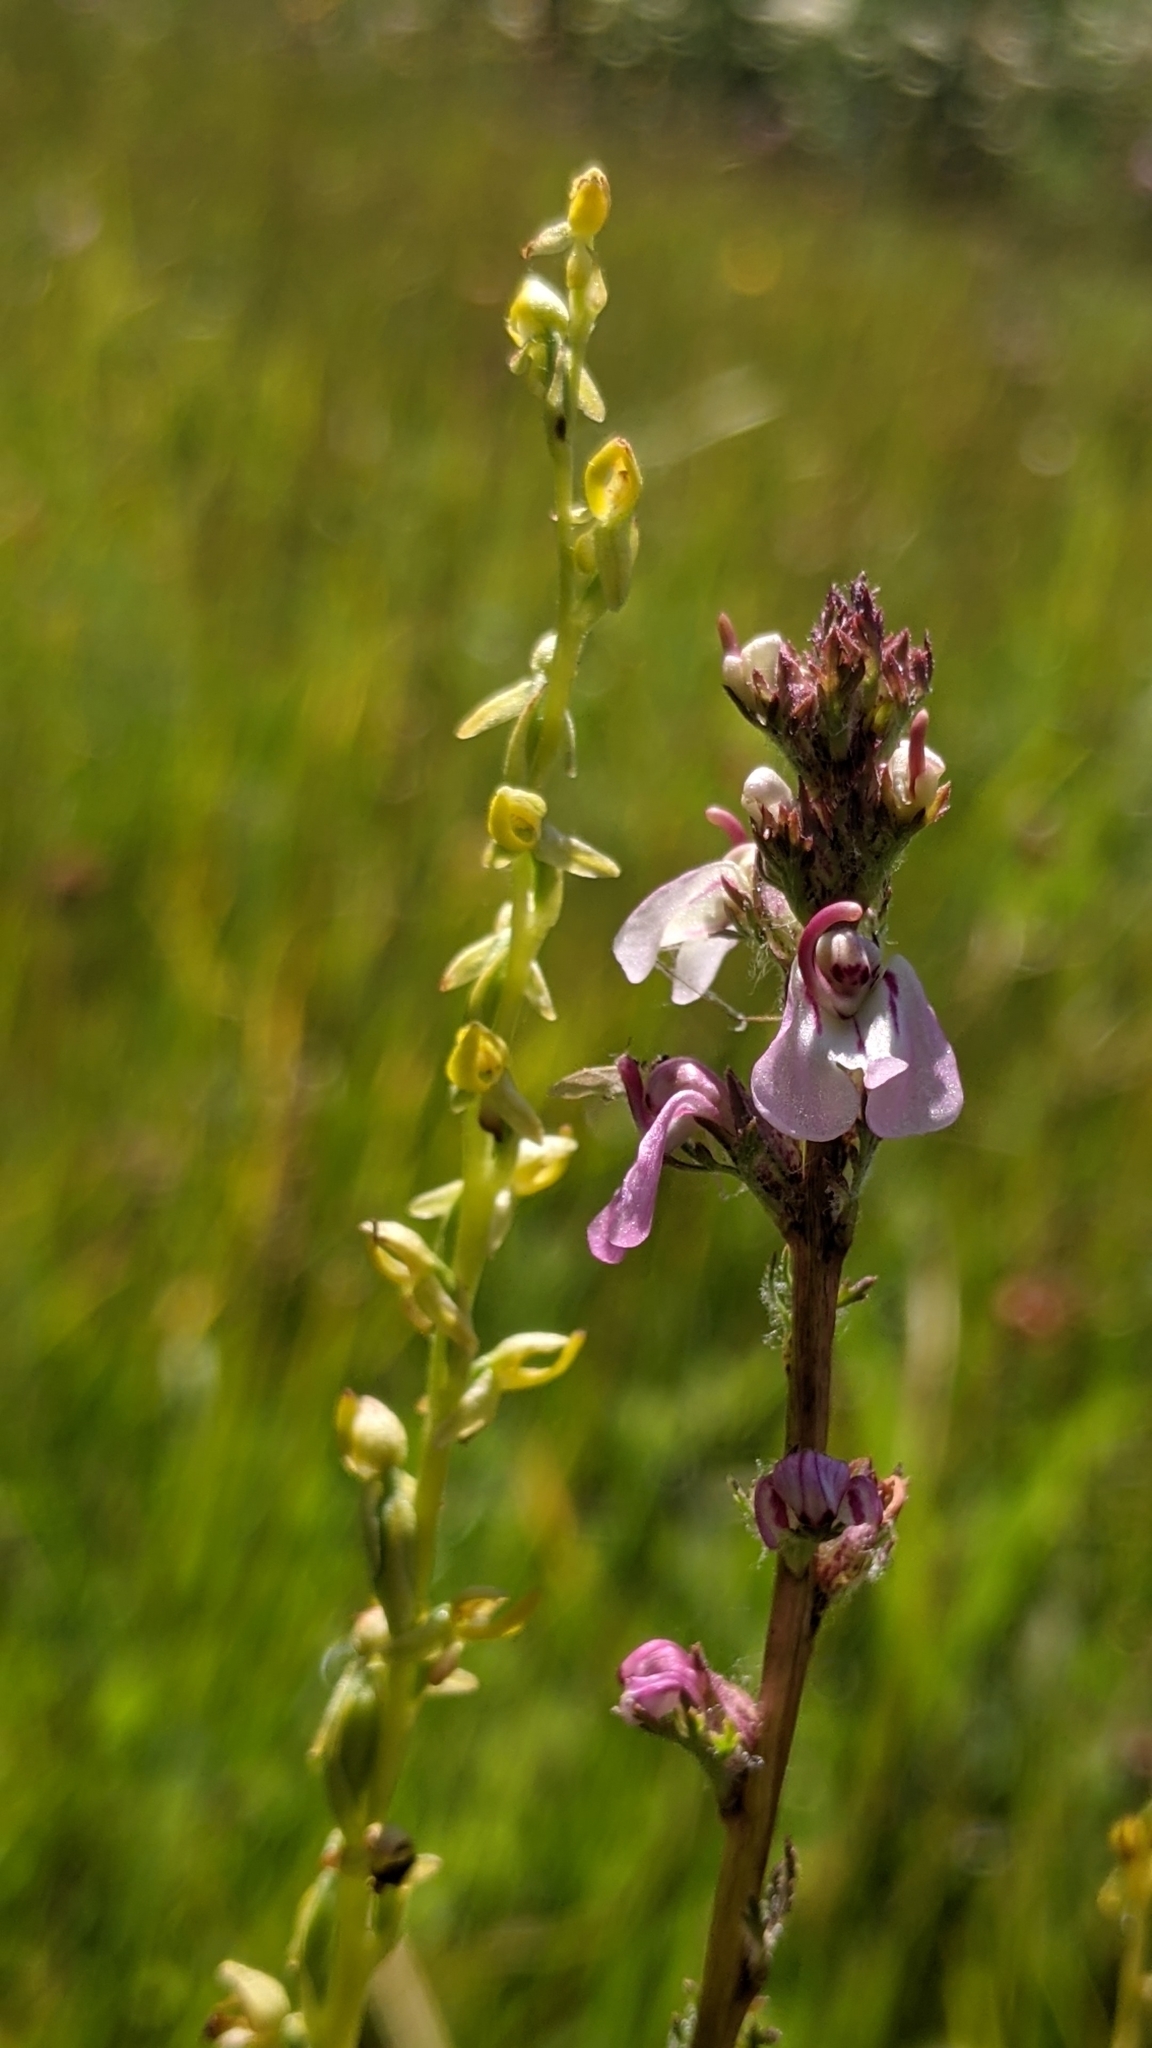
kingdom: Plantae
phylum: Tracheophyta
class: Magnoliopsida
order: Lamiales
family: Orobanchaceae
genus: Pedicularis
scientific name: Pedicularis attollens
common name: Slender pedicularis
